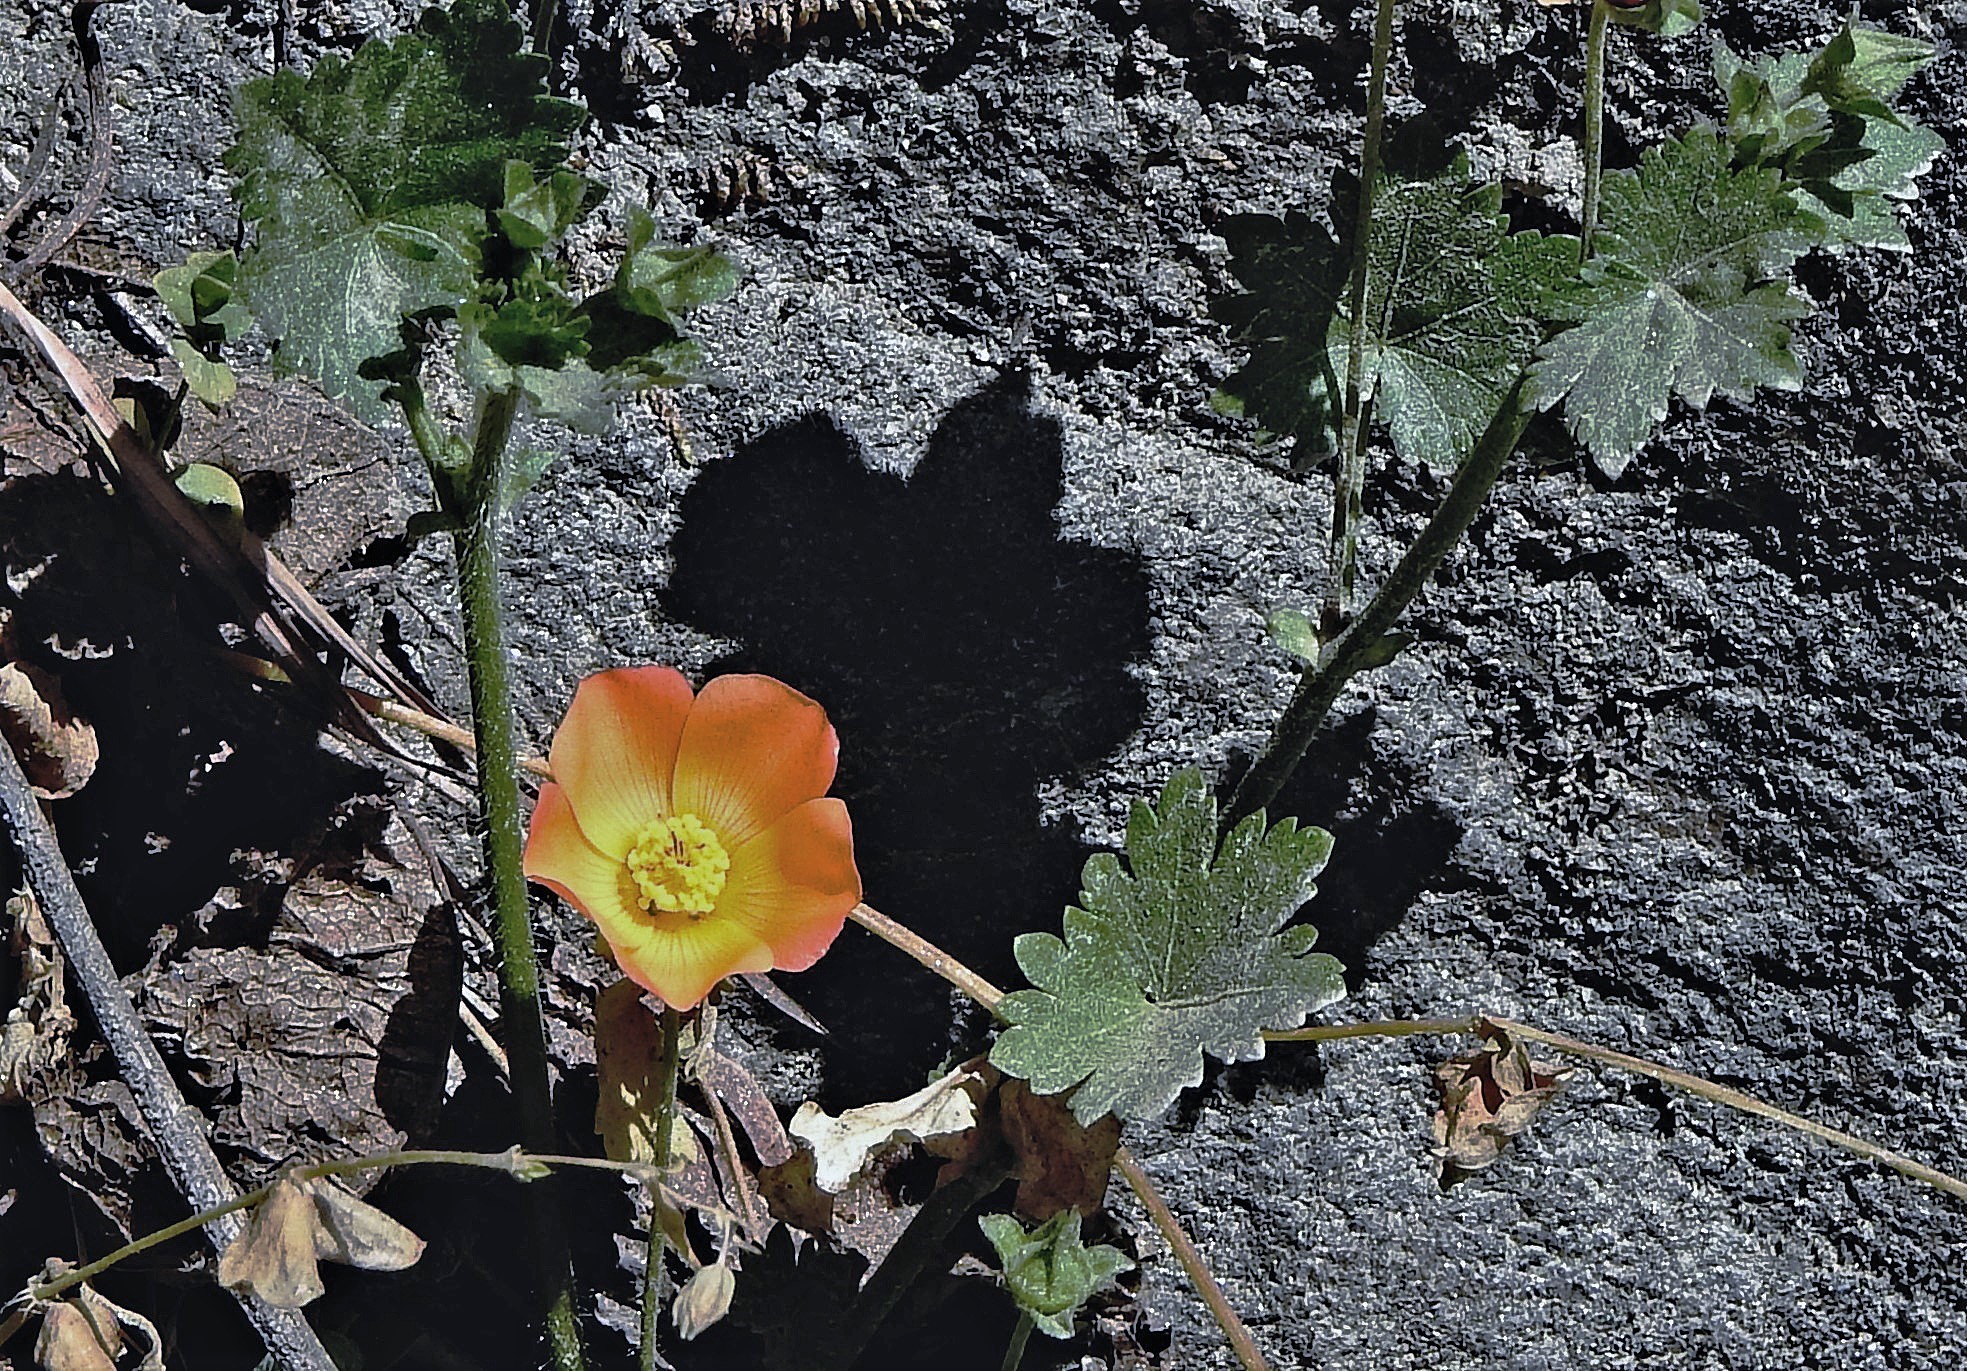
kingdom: Plantae
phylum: Tracheophyta
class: Magnoliopsida
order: Malvales
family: Malvaceae
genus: Modiola
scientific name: Modiola caroliniana
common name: Carolina bristlemallow
